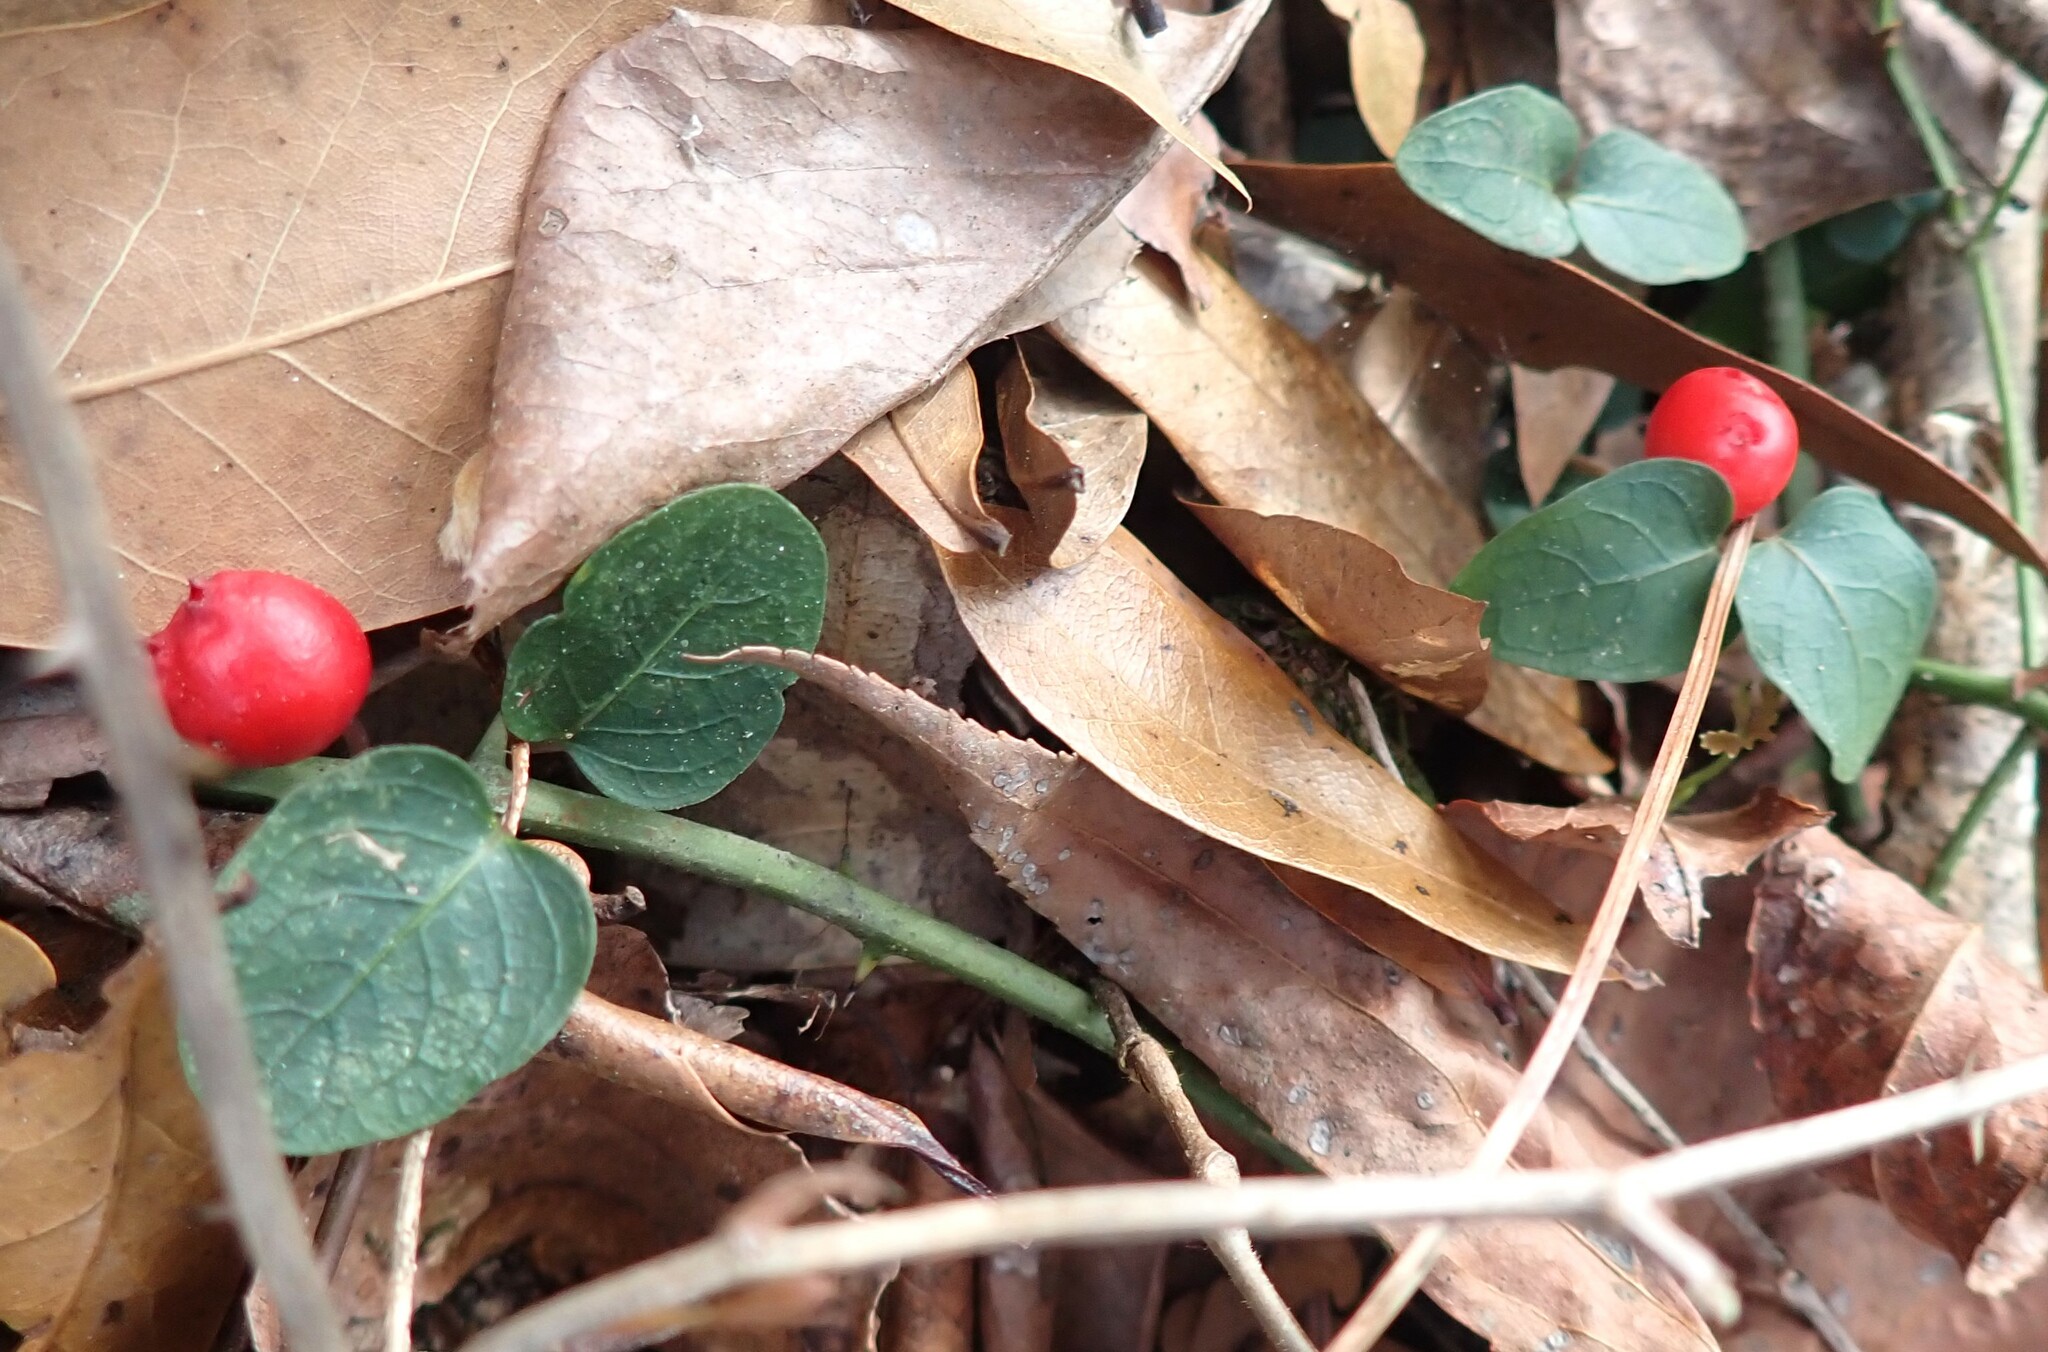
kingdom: Plantae
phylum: Tracheophyta
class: Magnoliopsida
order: Gentianales
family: Rubiaceae
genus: Mitchella
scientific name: Mitchella repens
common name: Partridge-berry
